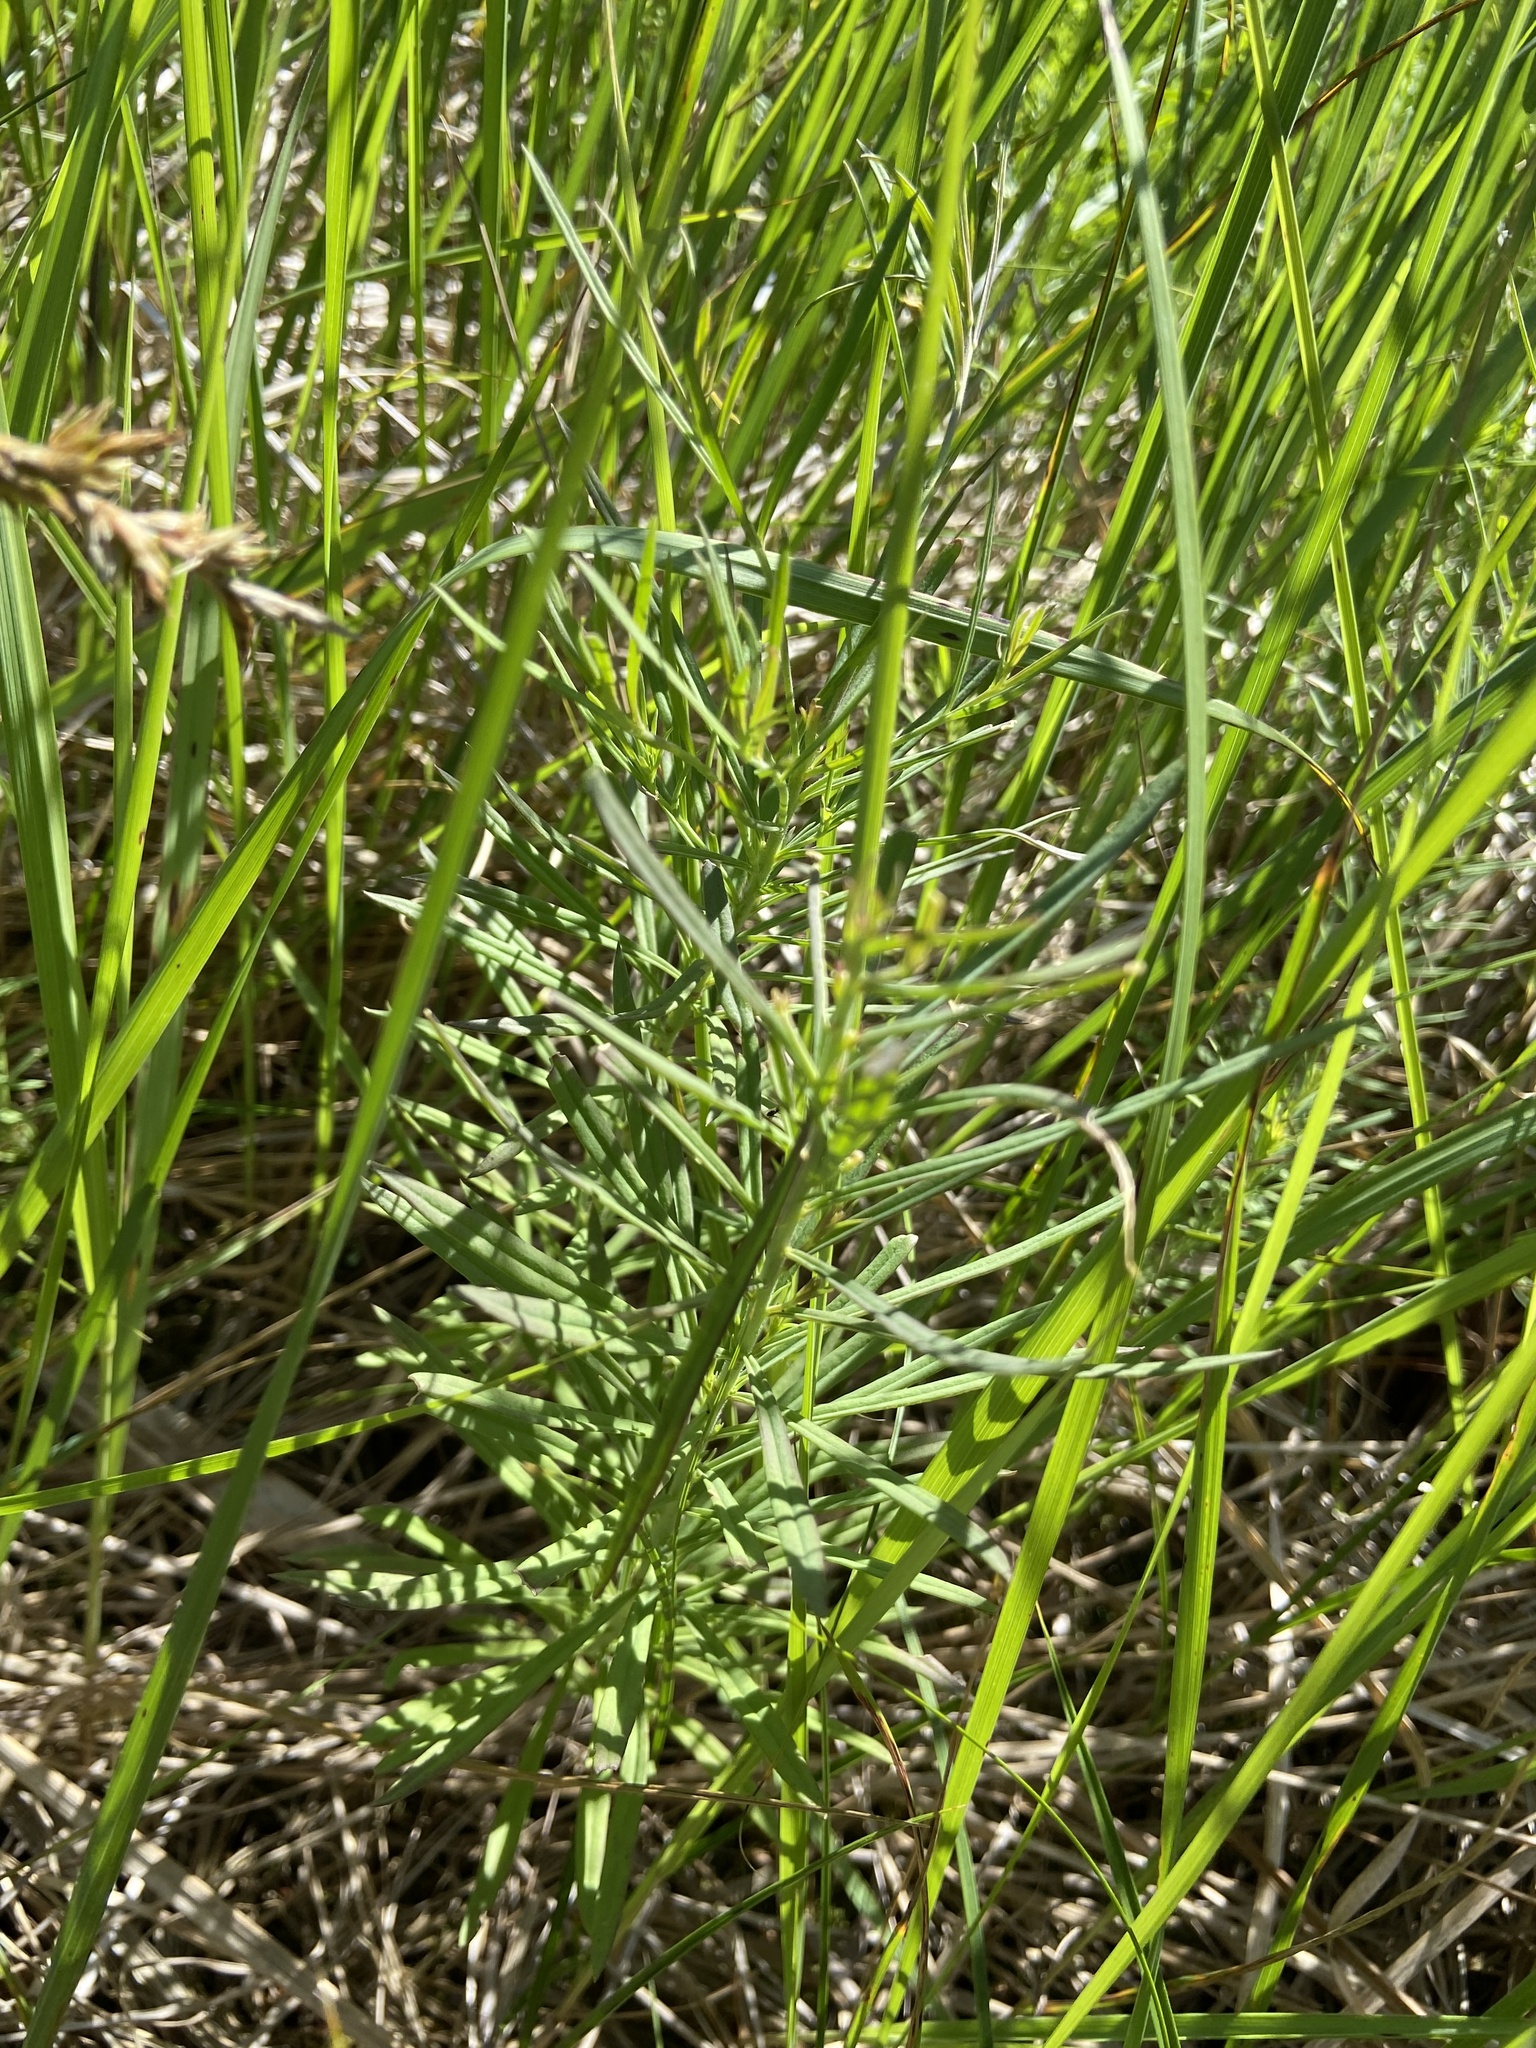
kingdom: Plantae
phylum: Tracheophyta
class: Magnoliopsida
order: Lamiales
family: Plantaginaceae
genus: Linaria
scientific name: Linaria vulgaris
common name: Butter and eggs
